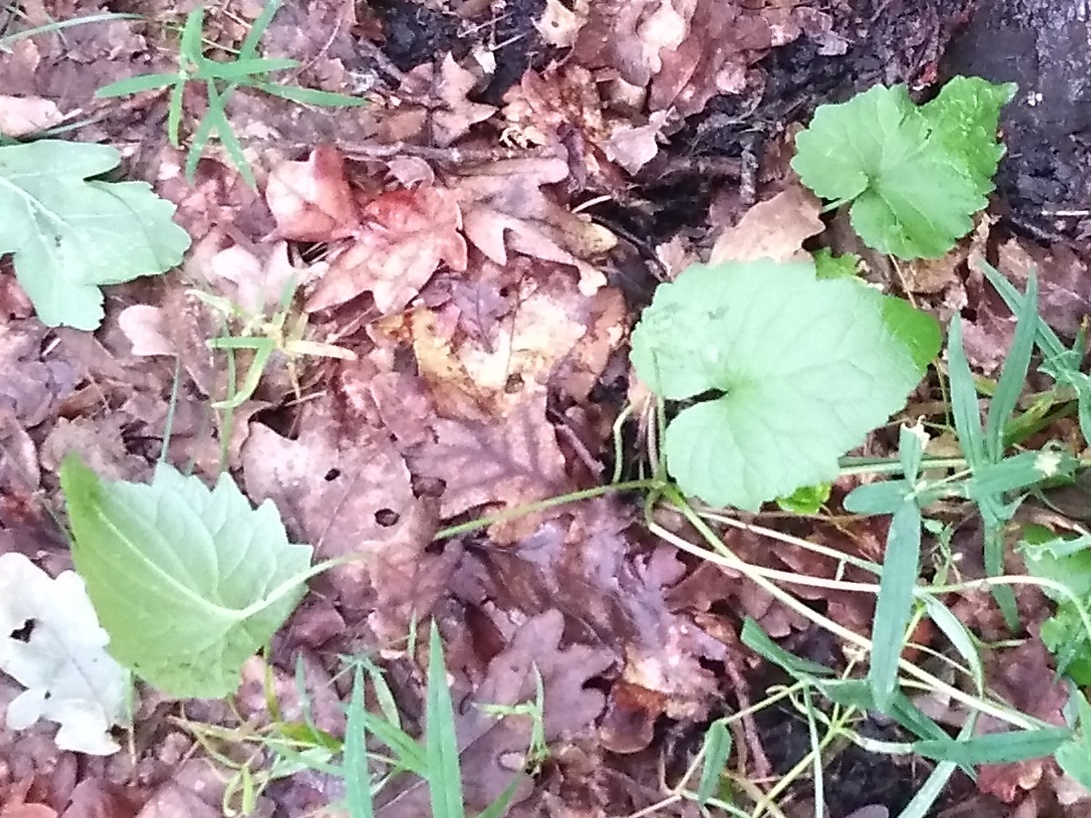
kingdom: Plantae
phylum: Tracheophyta
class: Magnoliopsida
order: Brassicales
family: Brassicaceae
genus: Alliaria
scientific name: Alliaria petiolata
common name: Garlic mustard
